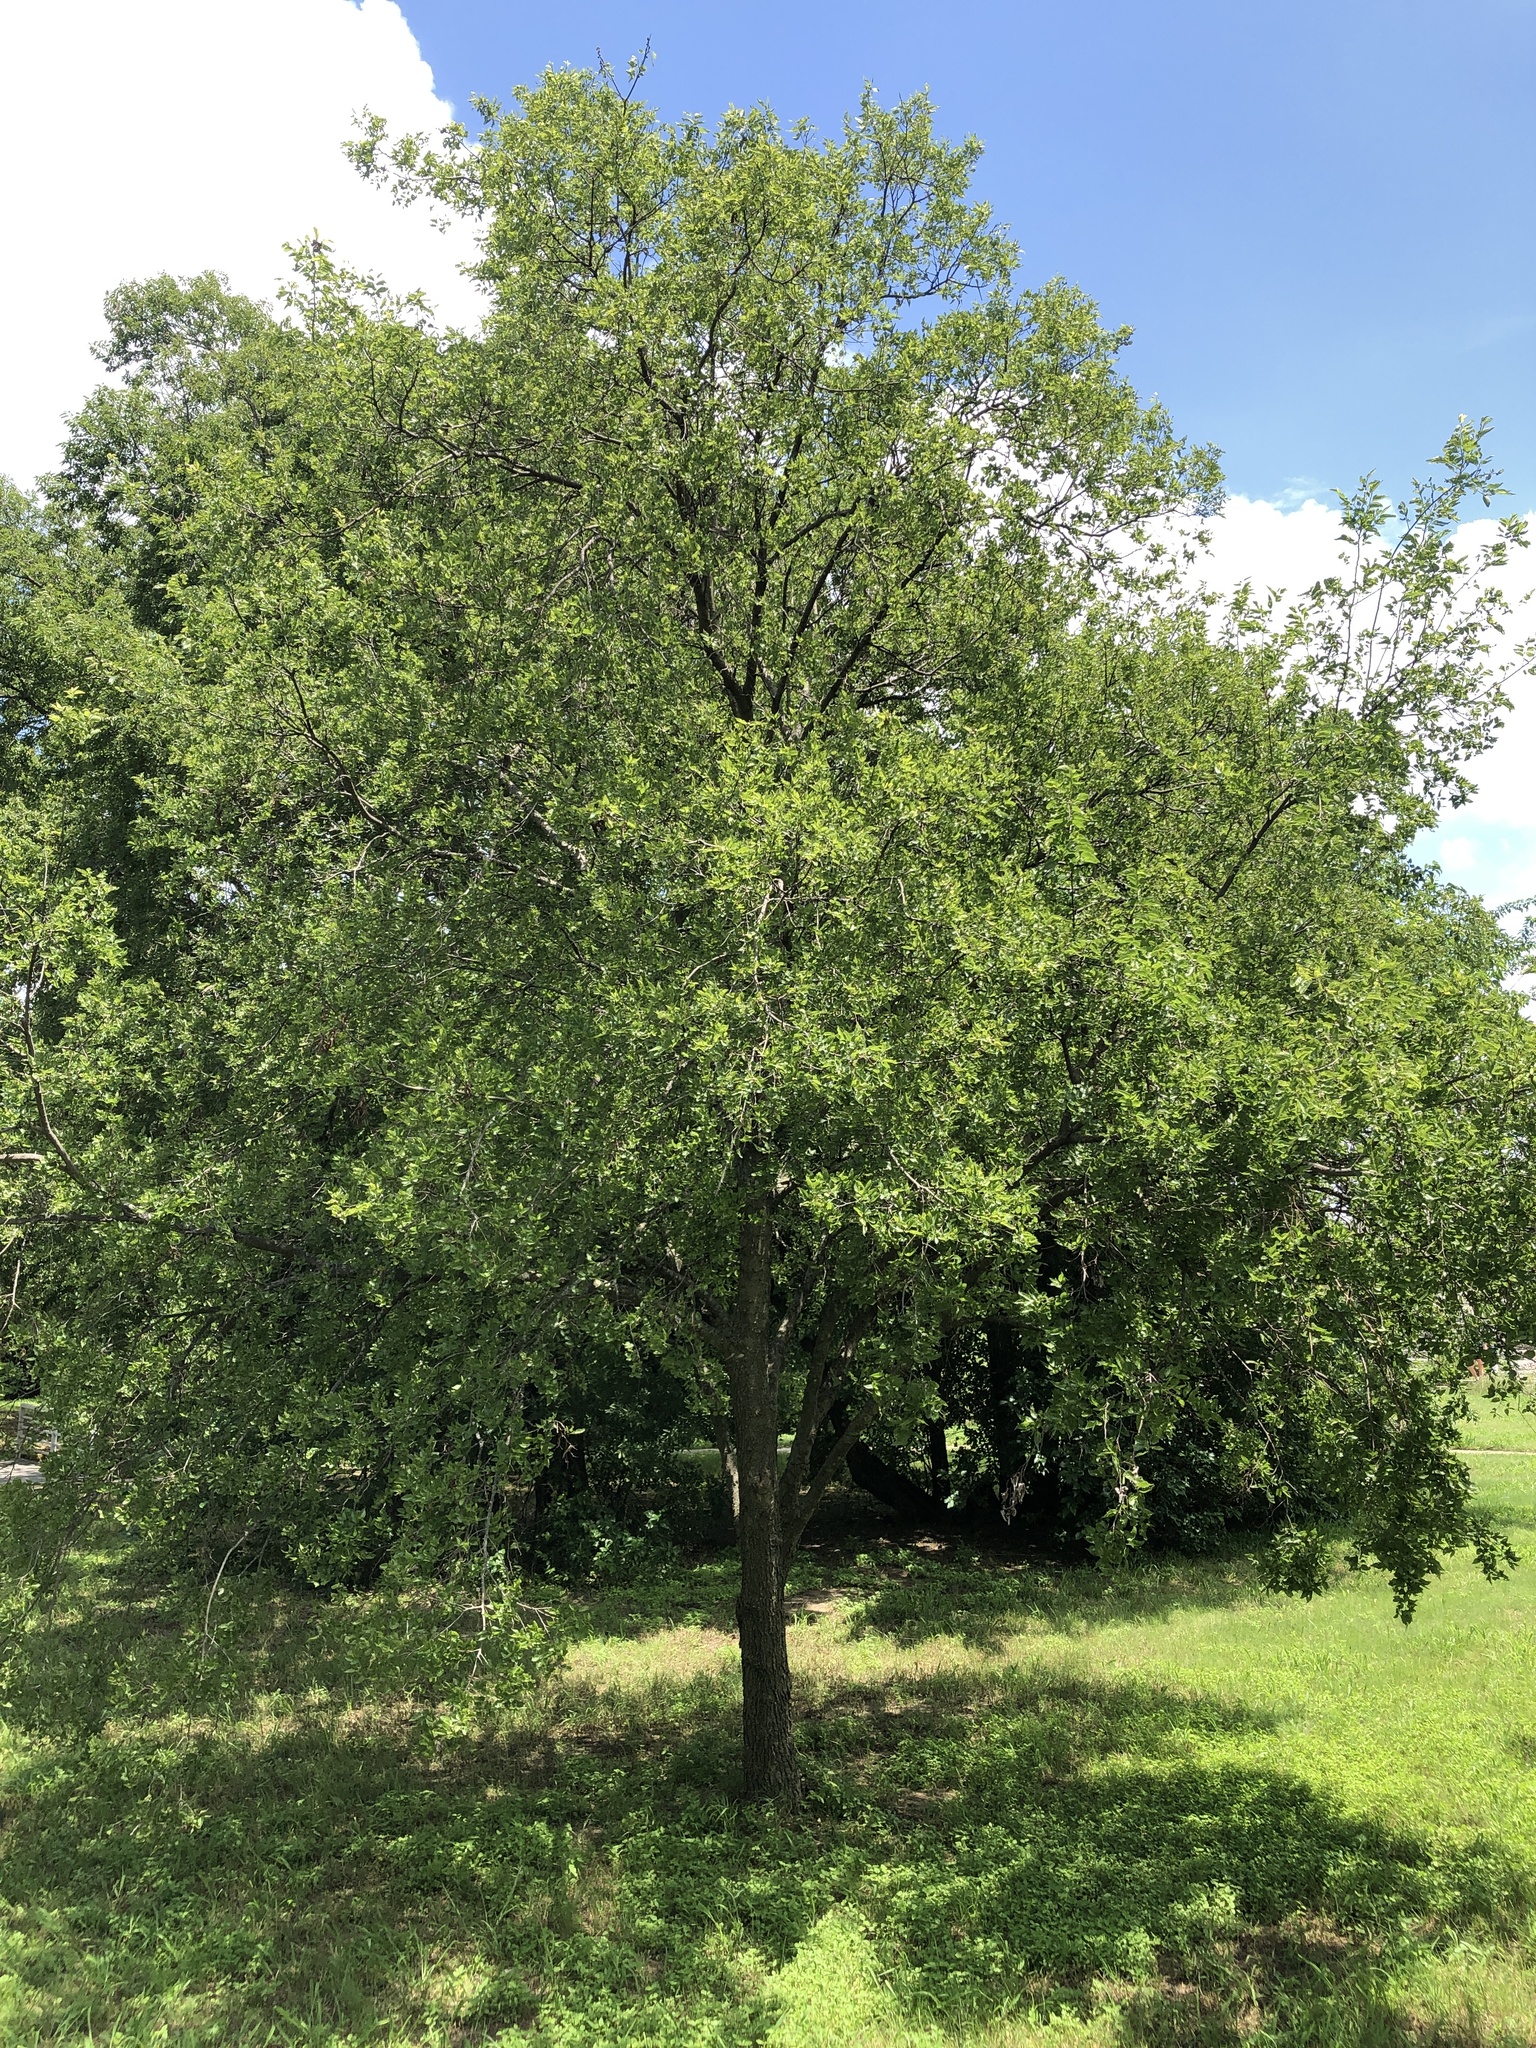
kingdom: Plantae
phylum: Tracheophyta
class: Magnoliopsida
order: Rosales
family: Cannabaceae
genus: Celtis
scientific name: Celtis laevigata
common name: Sugarberry
